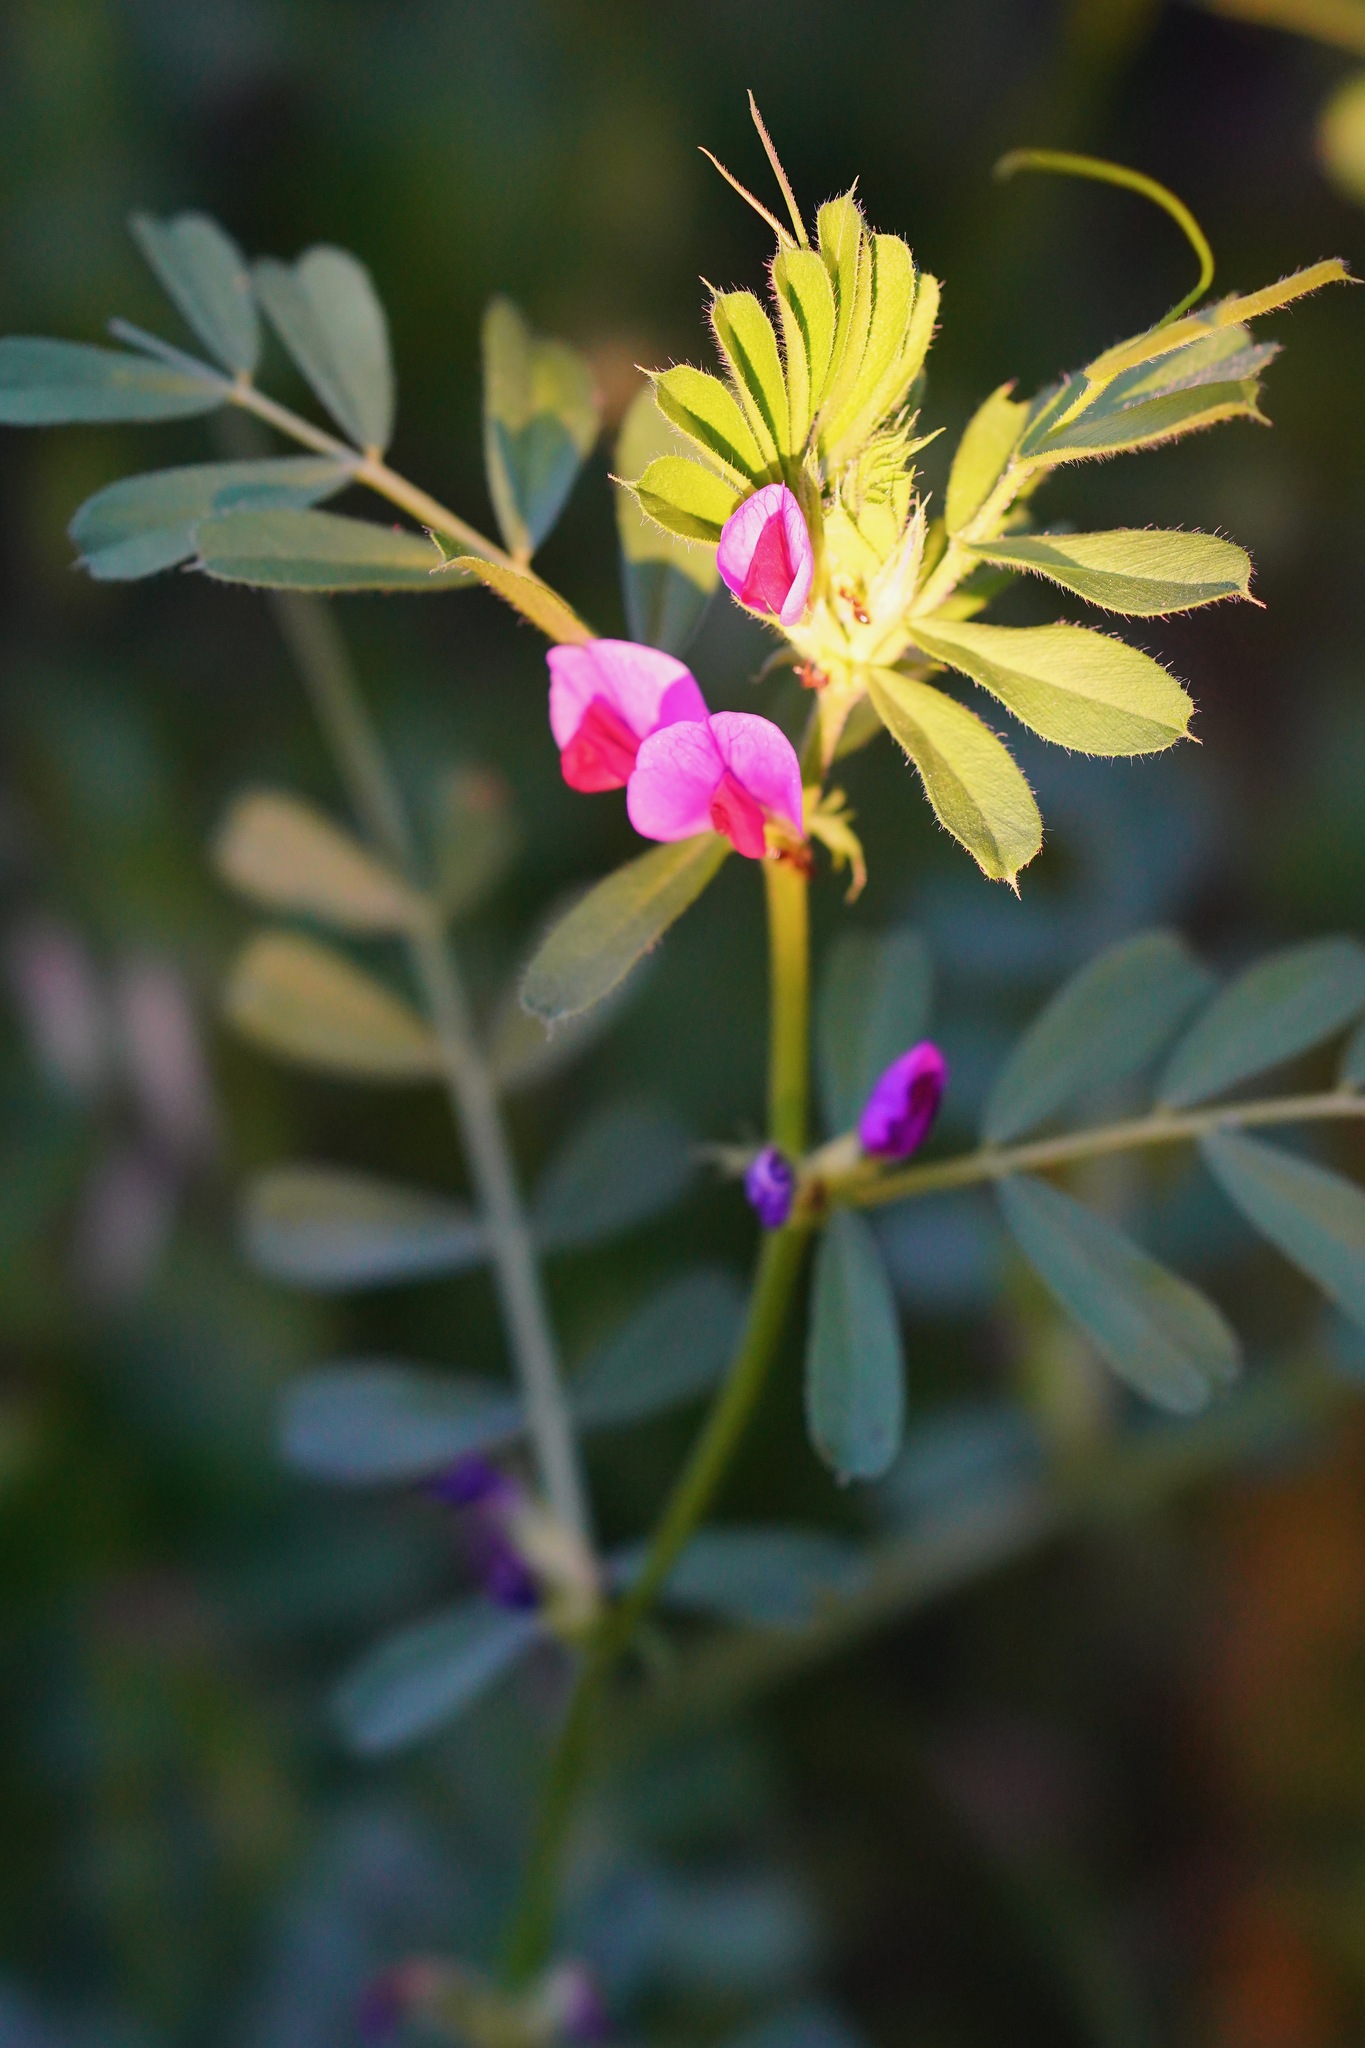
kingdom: Plantae
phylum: Tracheophyta
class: Magnoliopsida
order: Fabales
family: Fabaceae
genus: Vicia
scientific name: Vicia sativa
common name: Garden vetch
